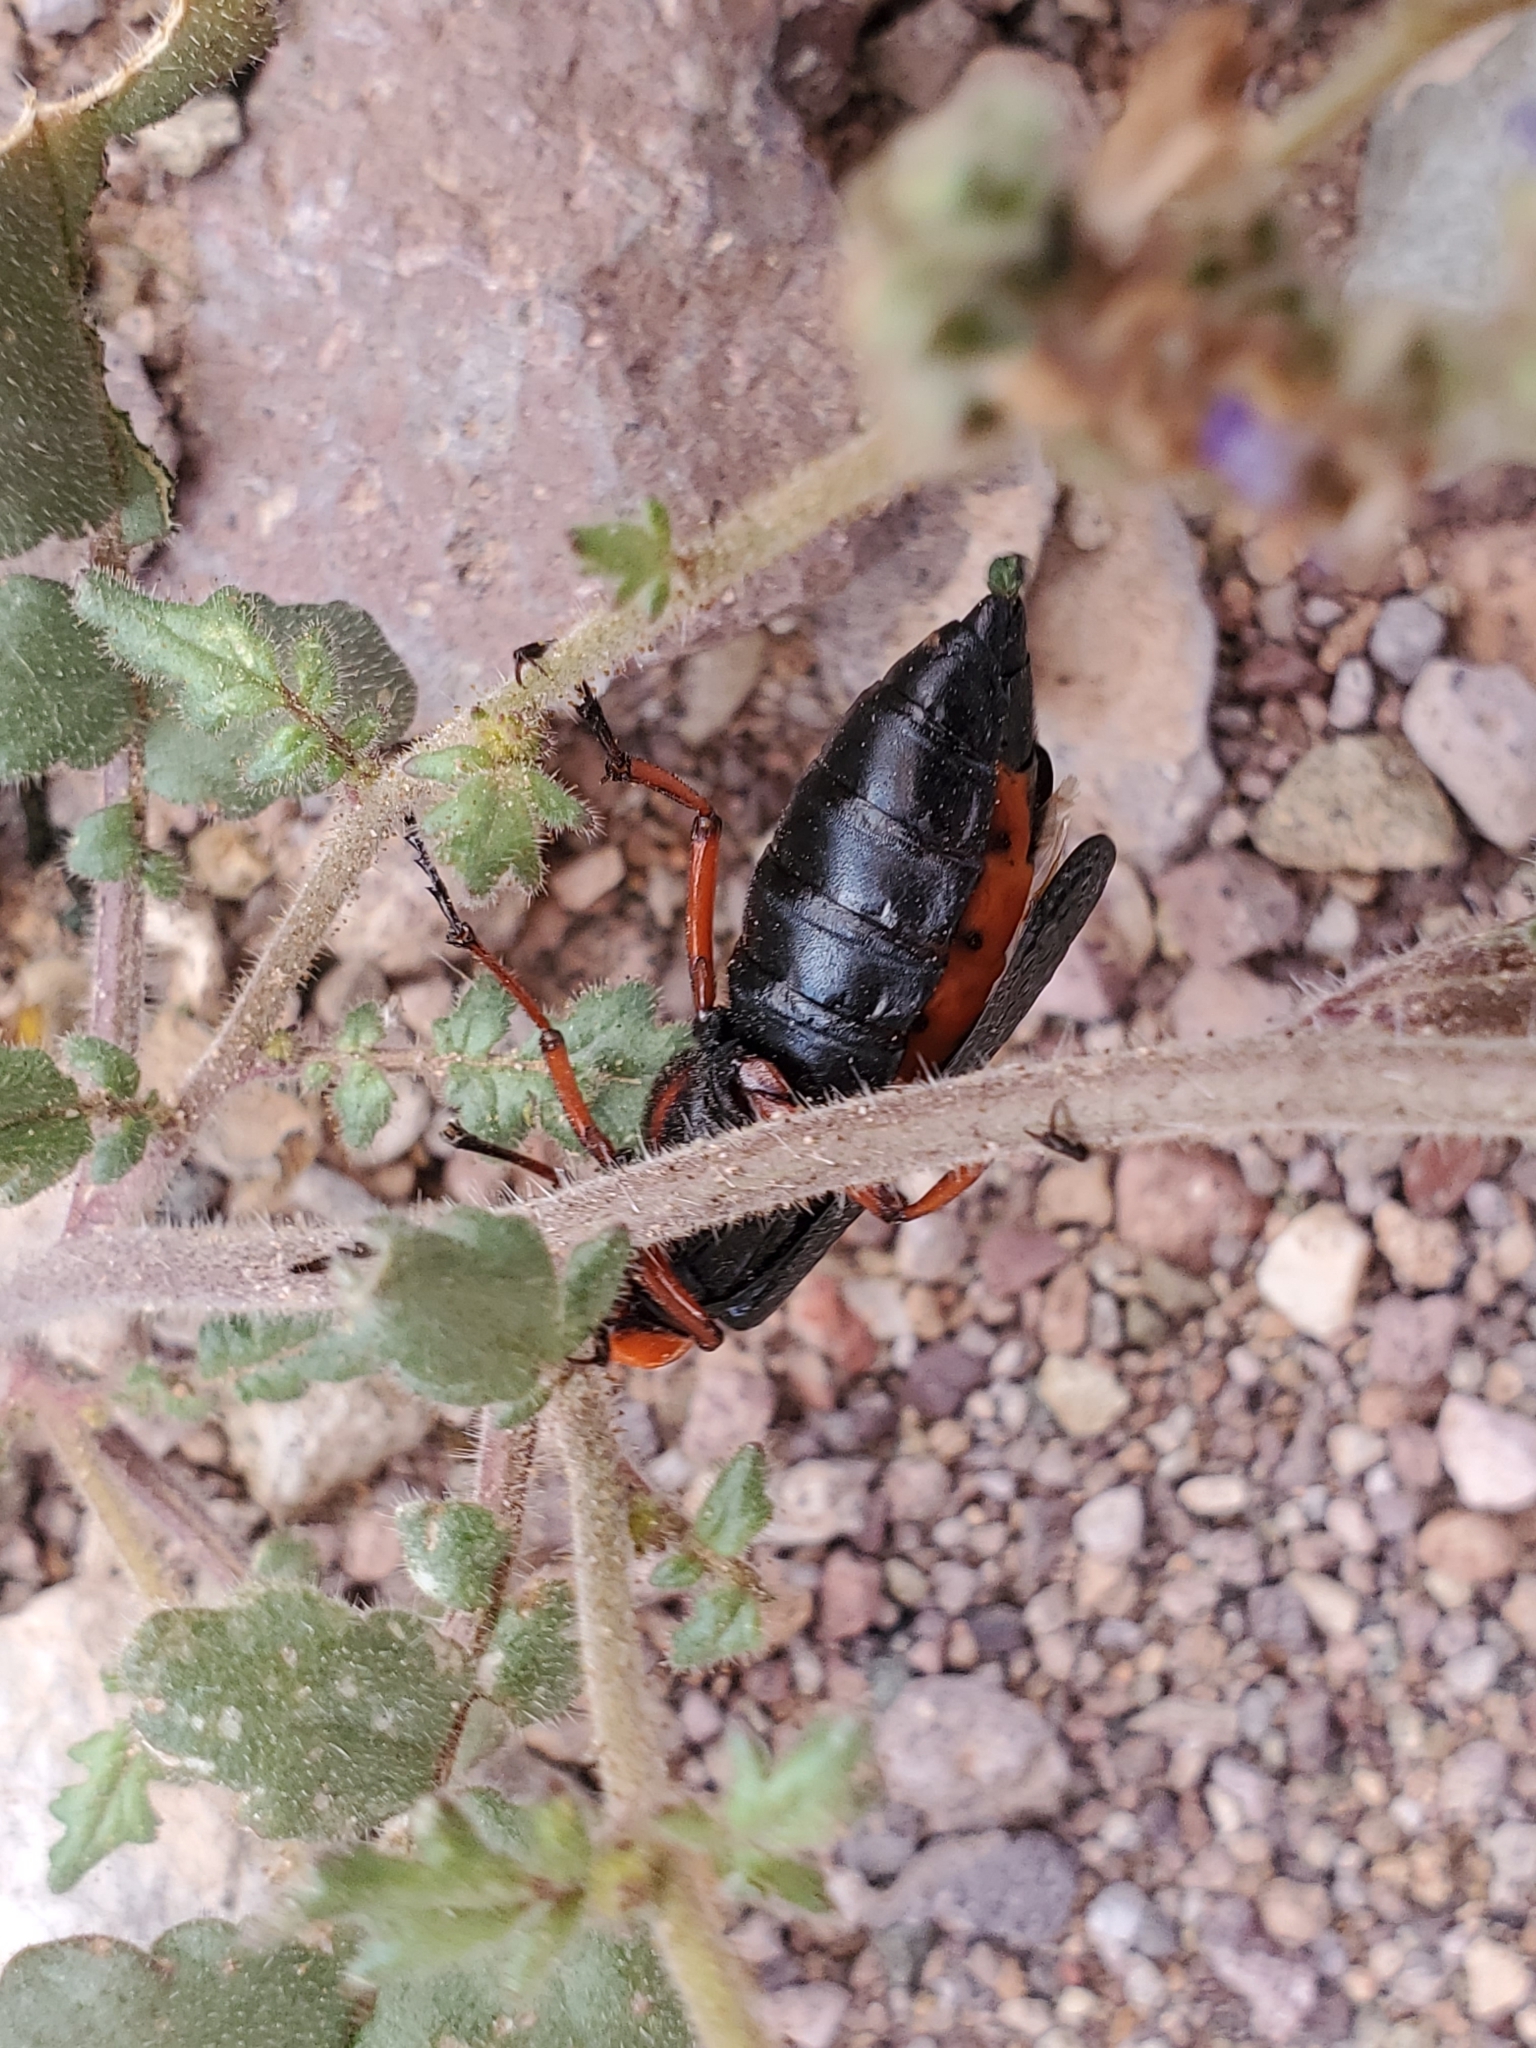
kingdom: Animalia
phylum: Arthropoda
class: Insecta
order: Coleoptera
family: Meloidae
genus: Lytta
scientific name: Lytta magister
